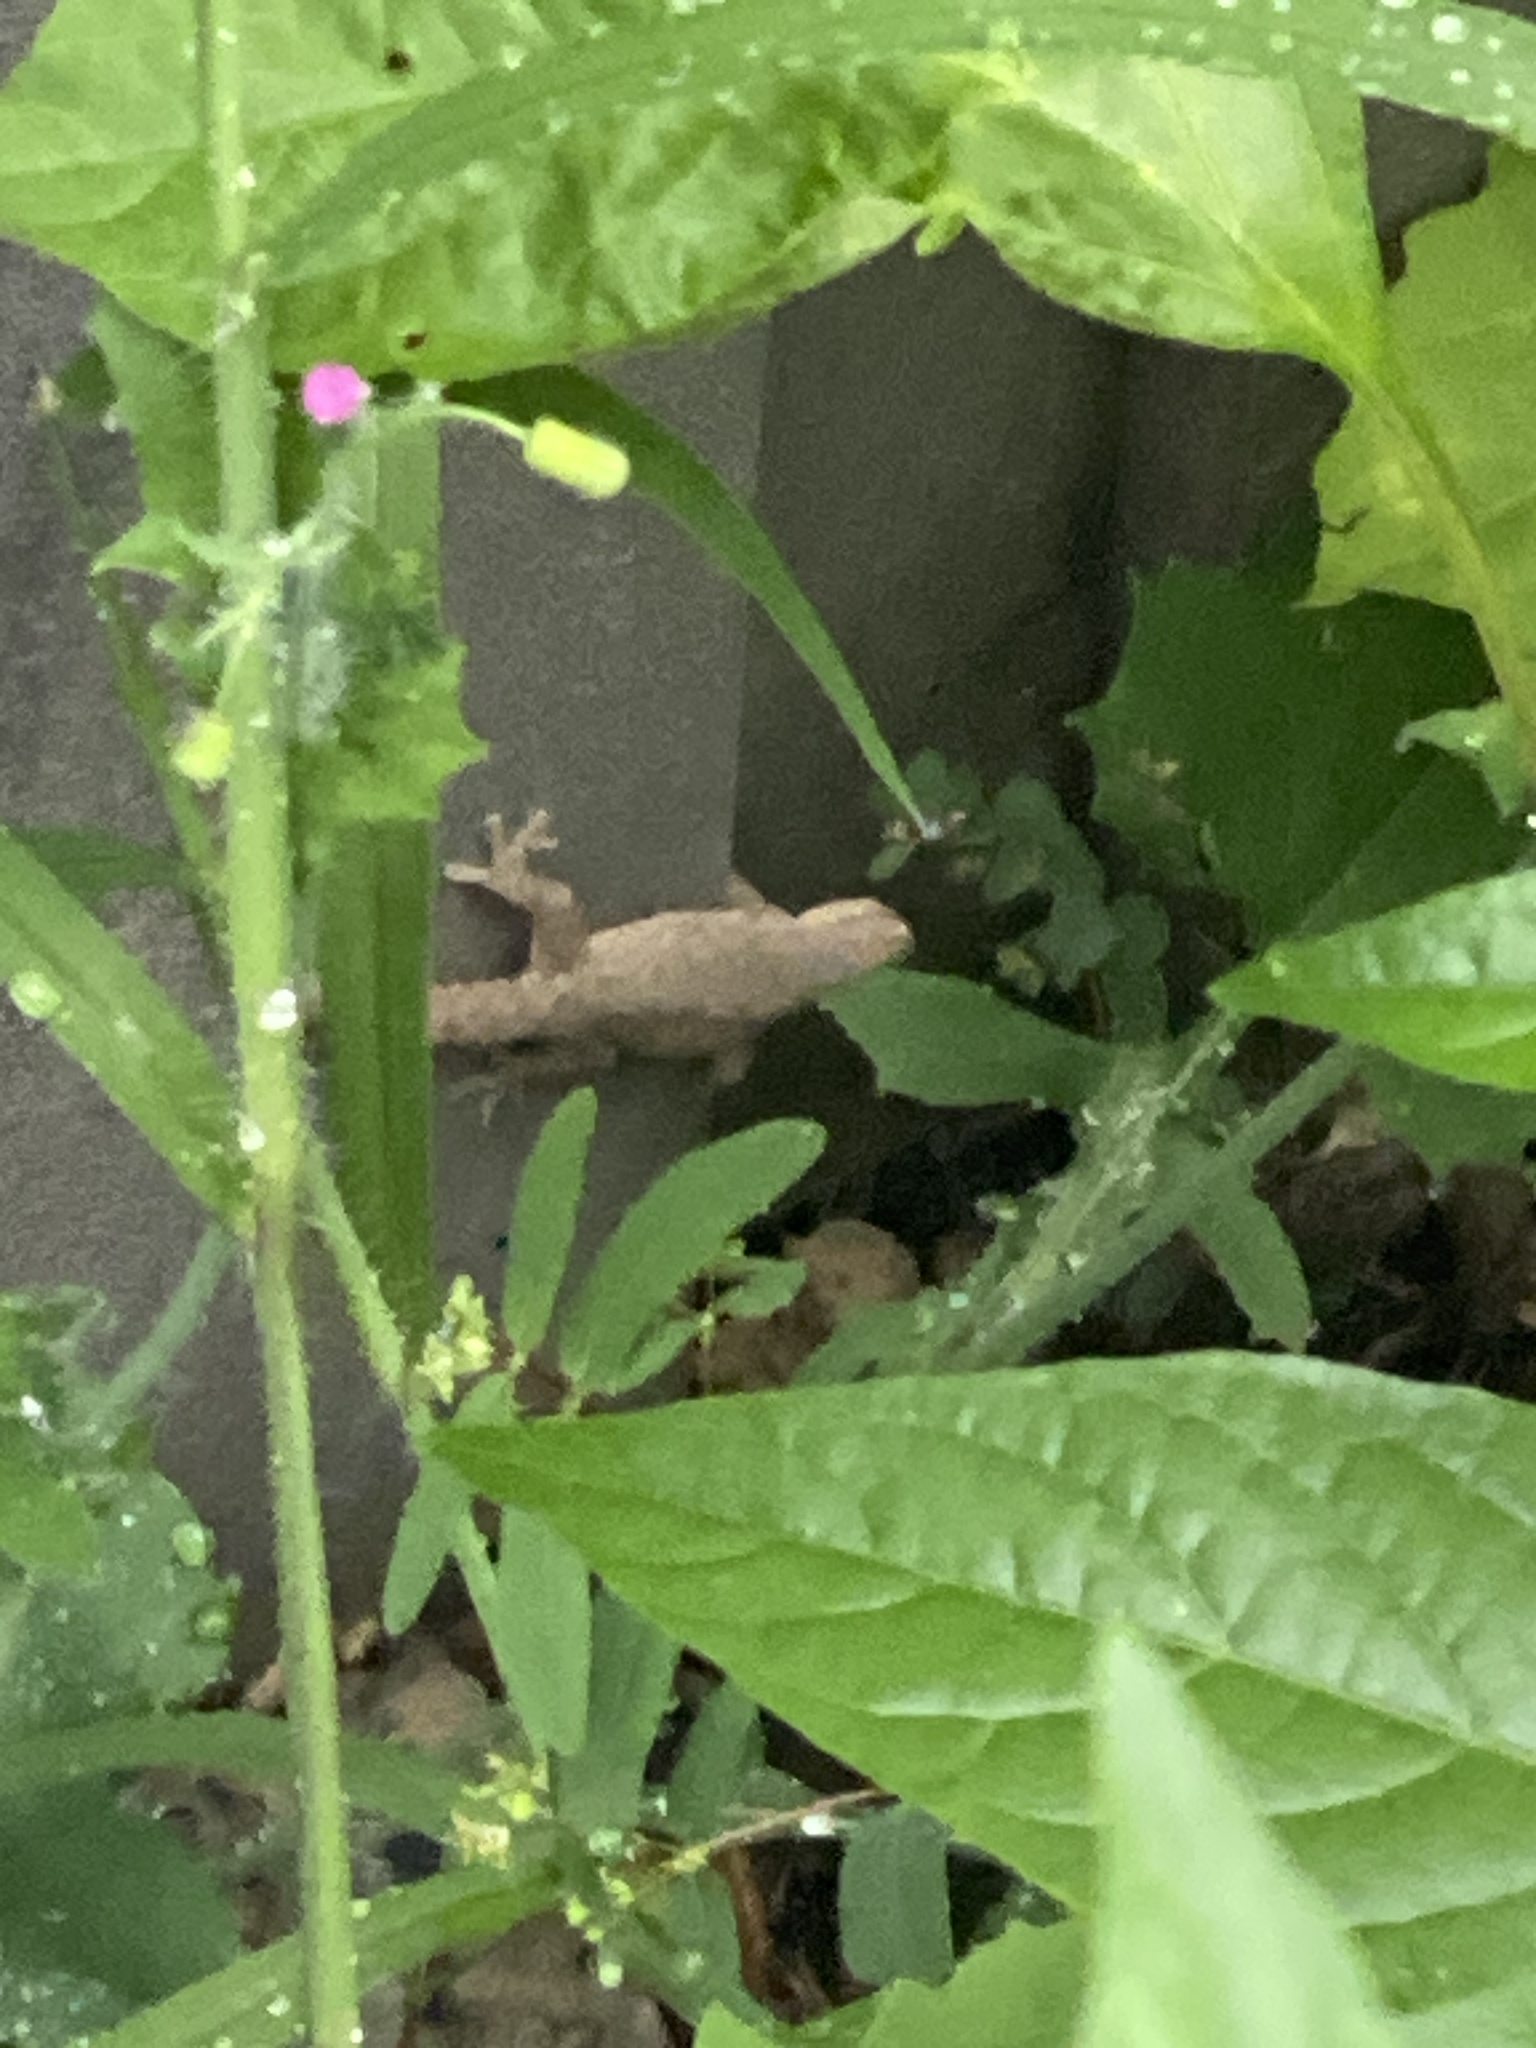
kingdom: Animalia
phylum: Chordata
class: Squamata
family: Gekkonidae
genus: Hemidactylus
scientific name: Hemidactylus frenatus
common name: Common house gecko
